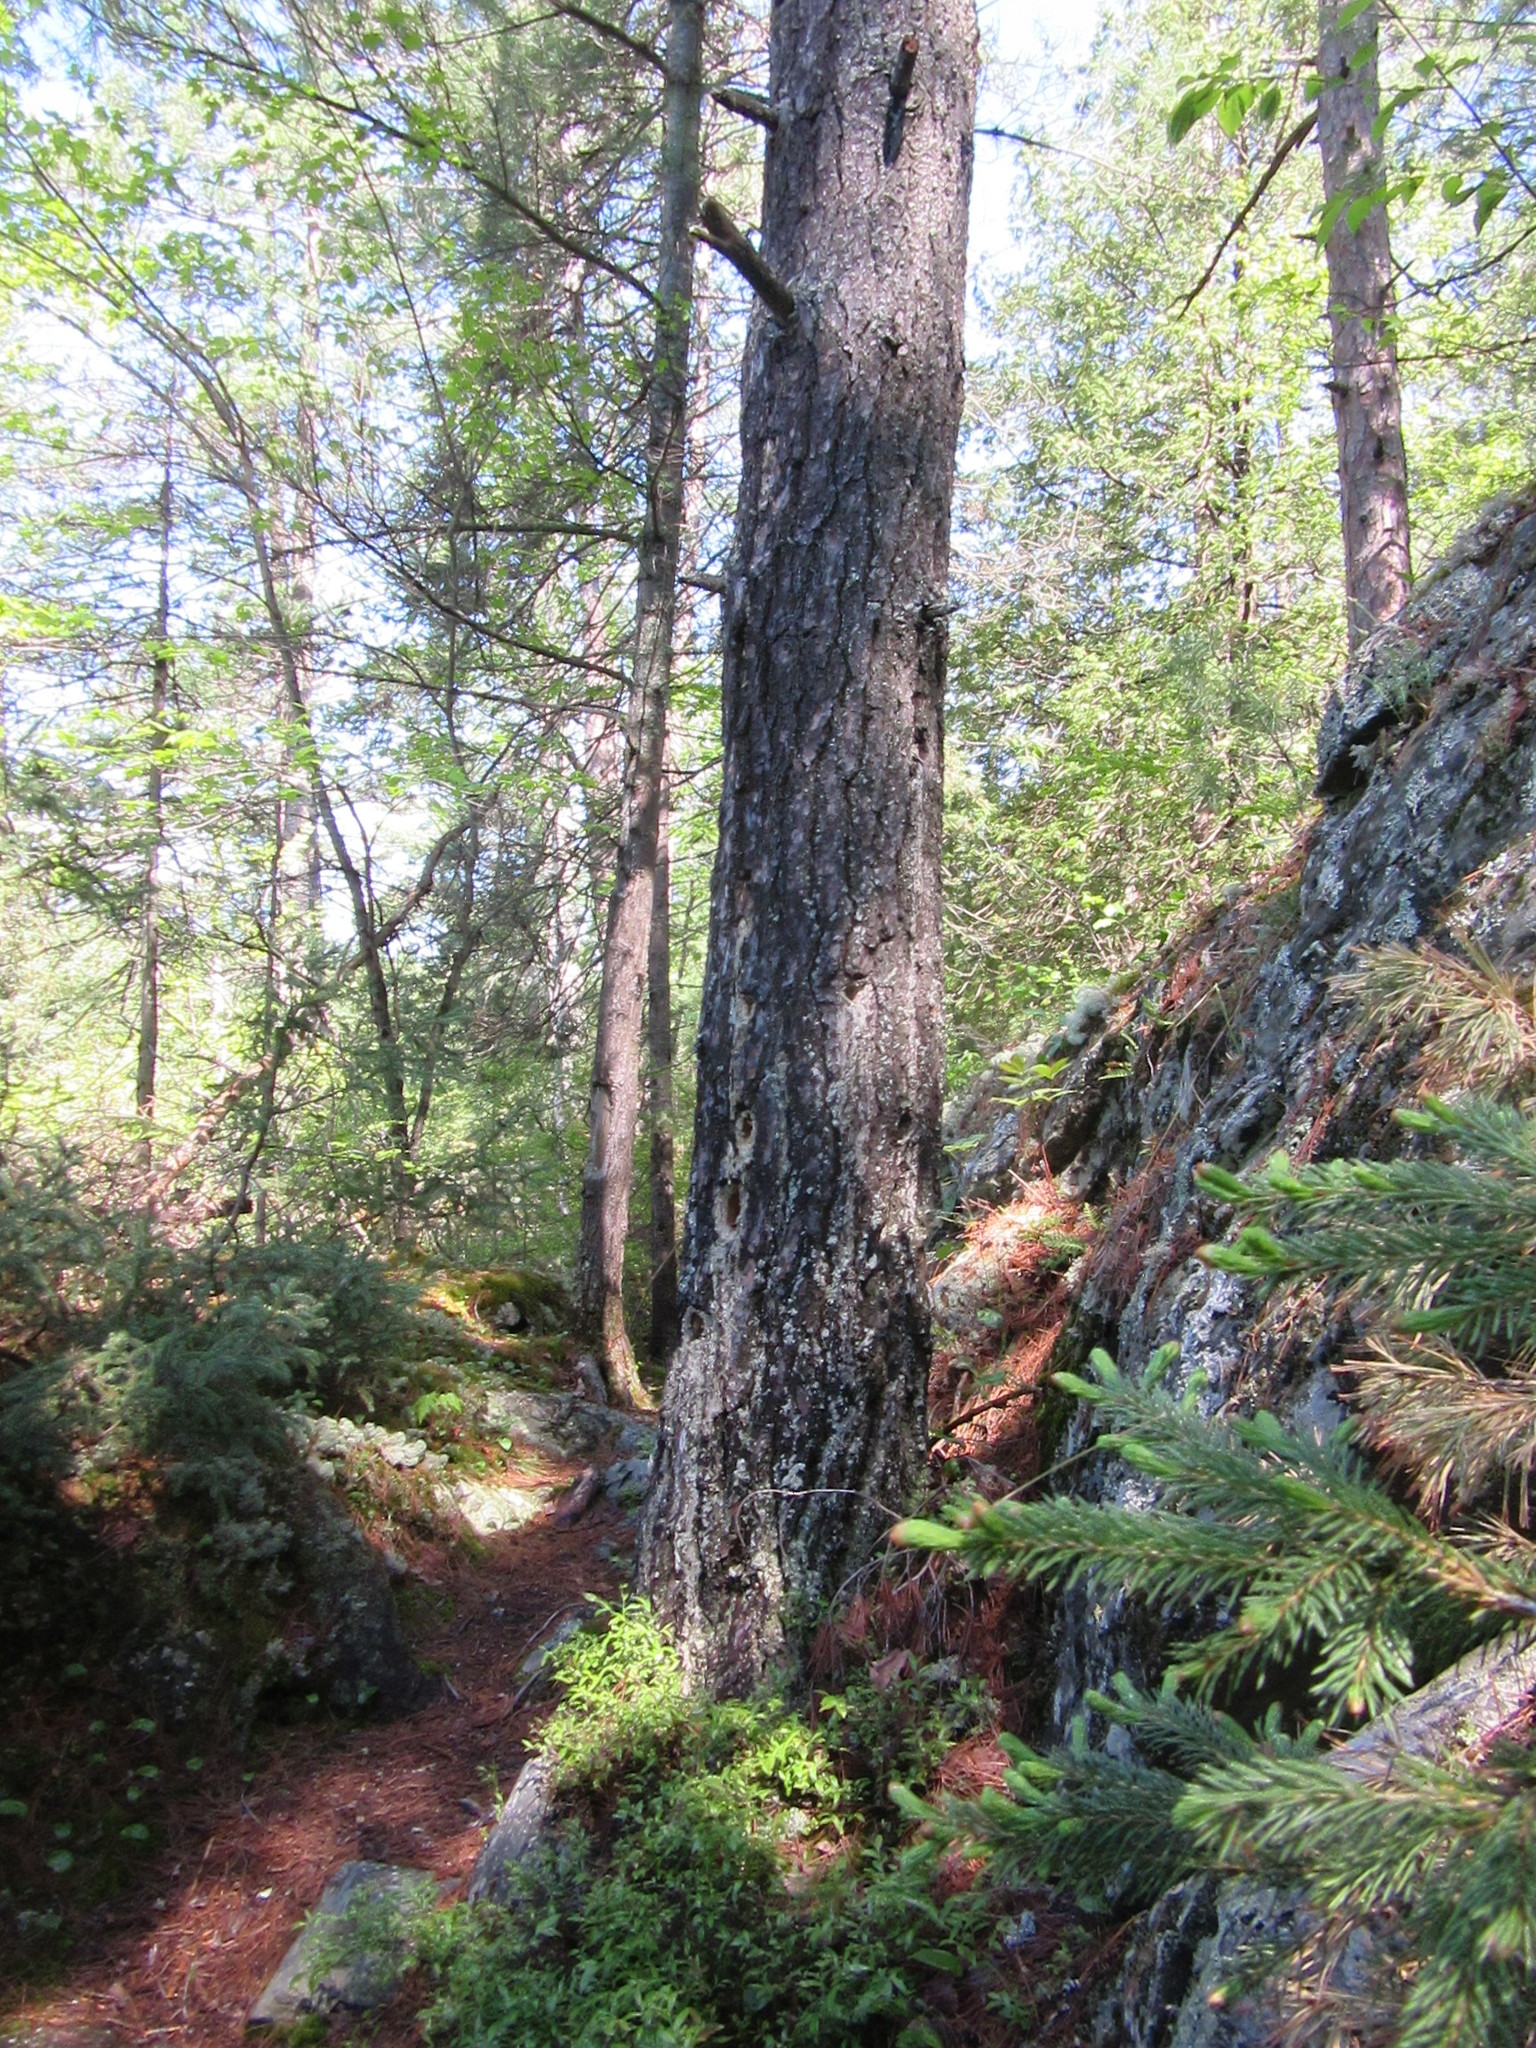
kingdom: Plantae
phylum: Tracheophyta
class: Pinopsida
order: Pinales
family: Pinaceae
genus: Pinus
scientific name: Pinus strobus
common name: Weymouth pine
